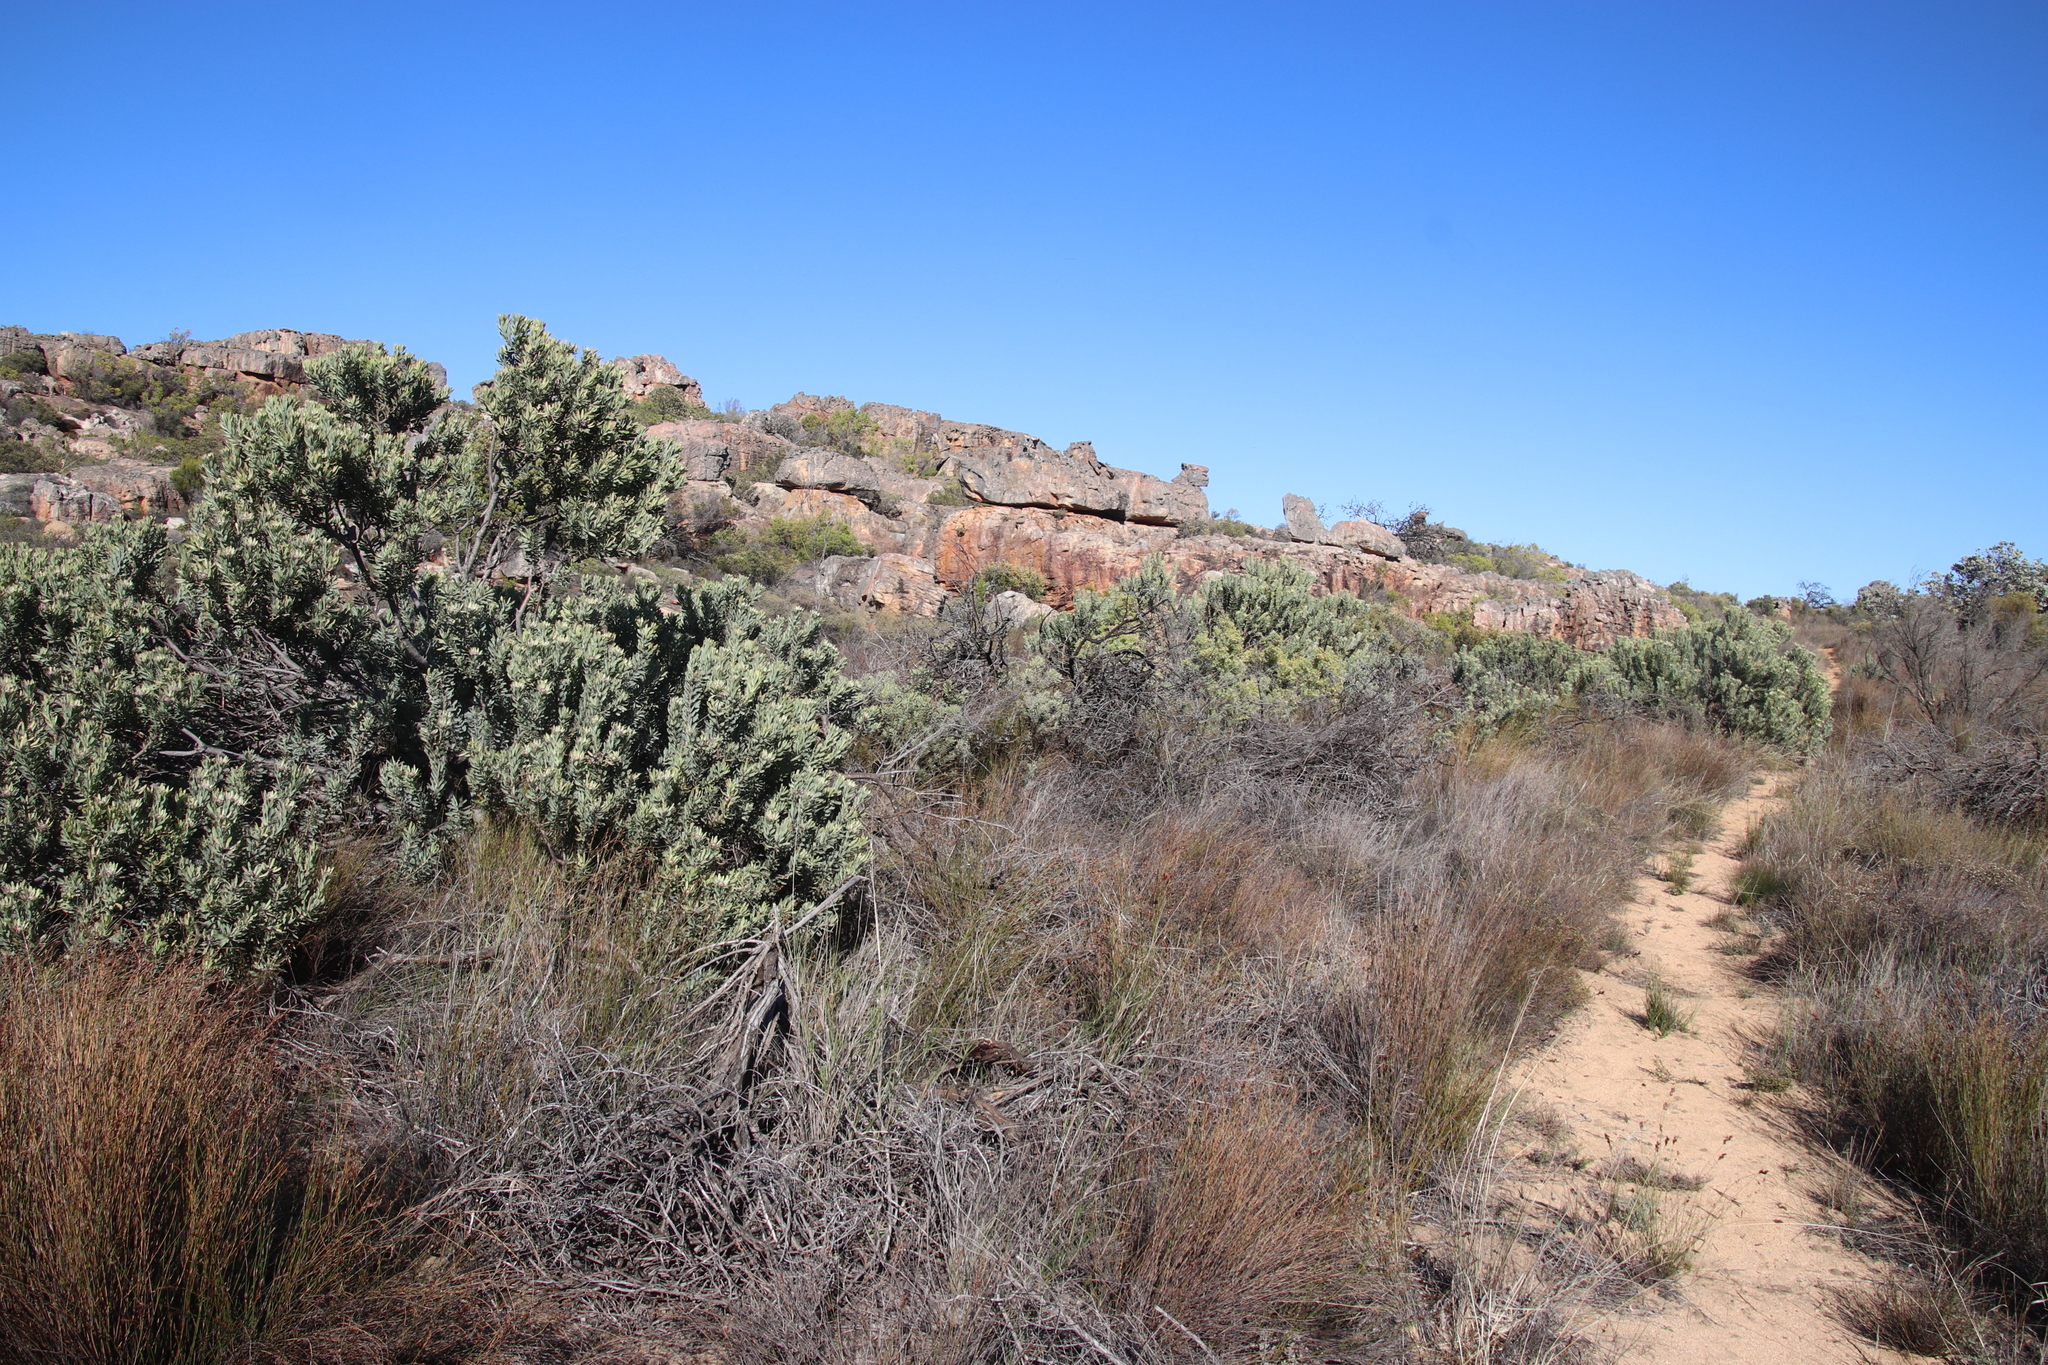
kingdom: Plantae
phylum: Tracheophyta
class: Magnoliopsida
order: Proteales
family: Proteaceae
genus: Leucadendron
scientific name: Leucadendron pubescens
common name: Grey conebush
